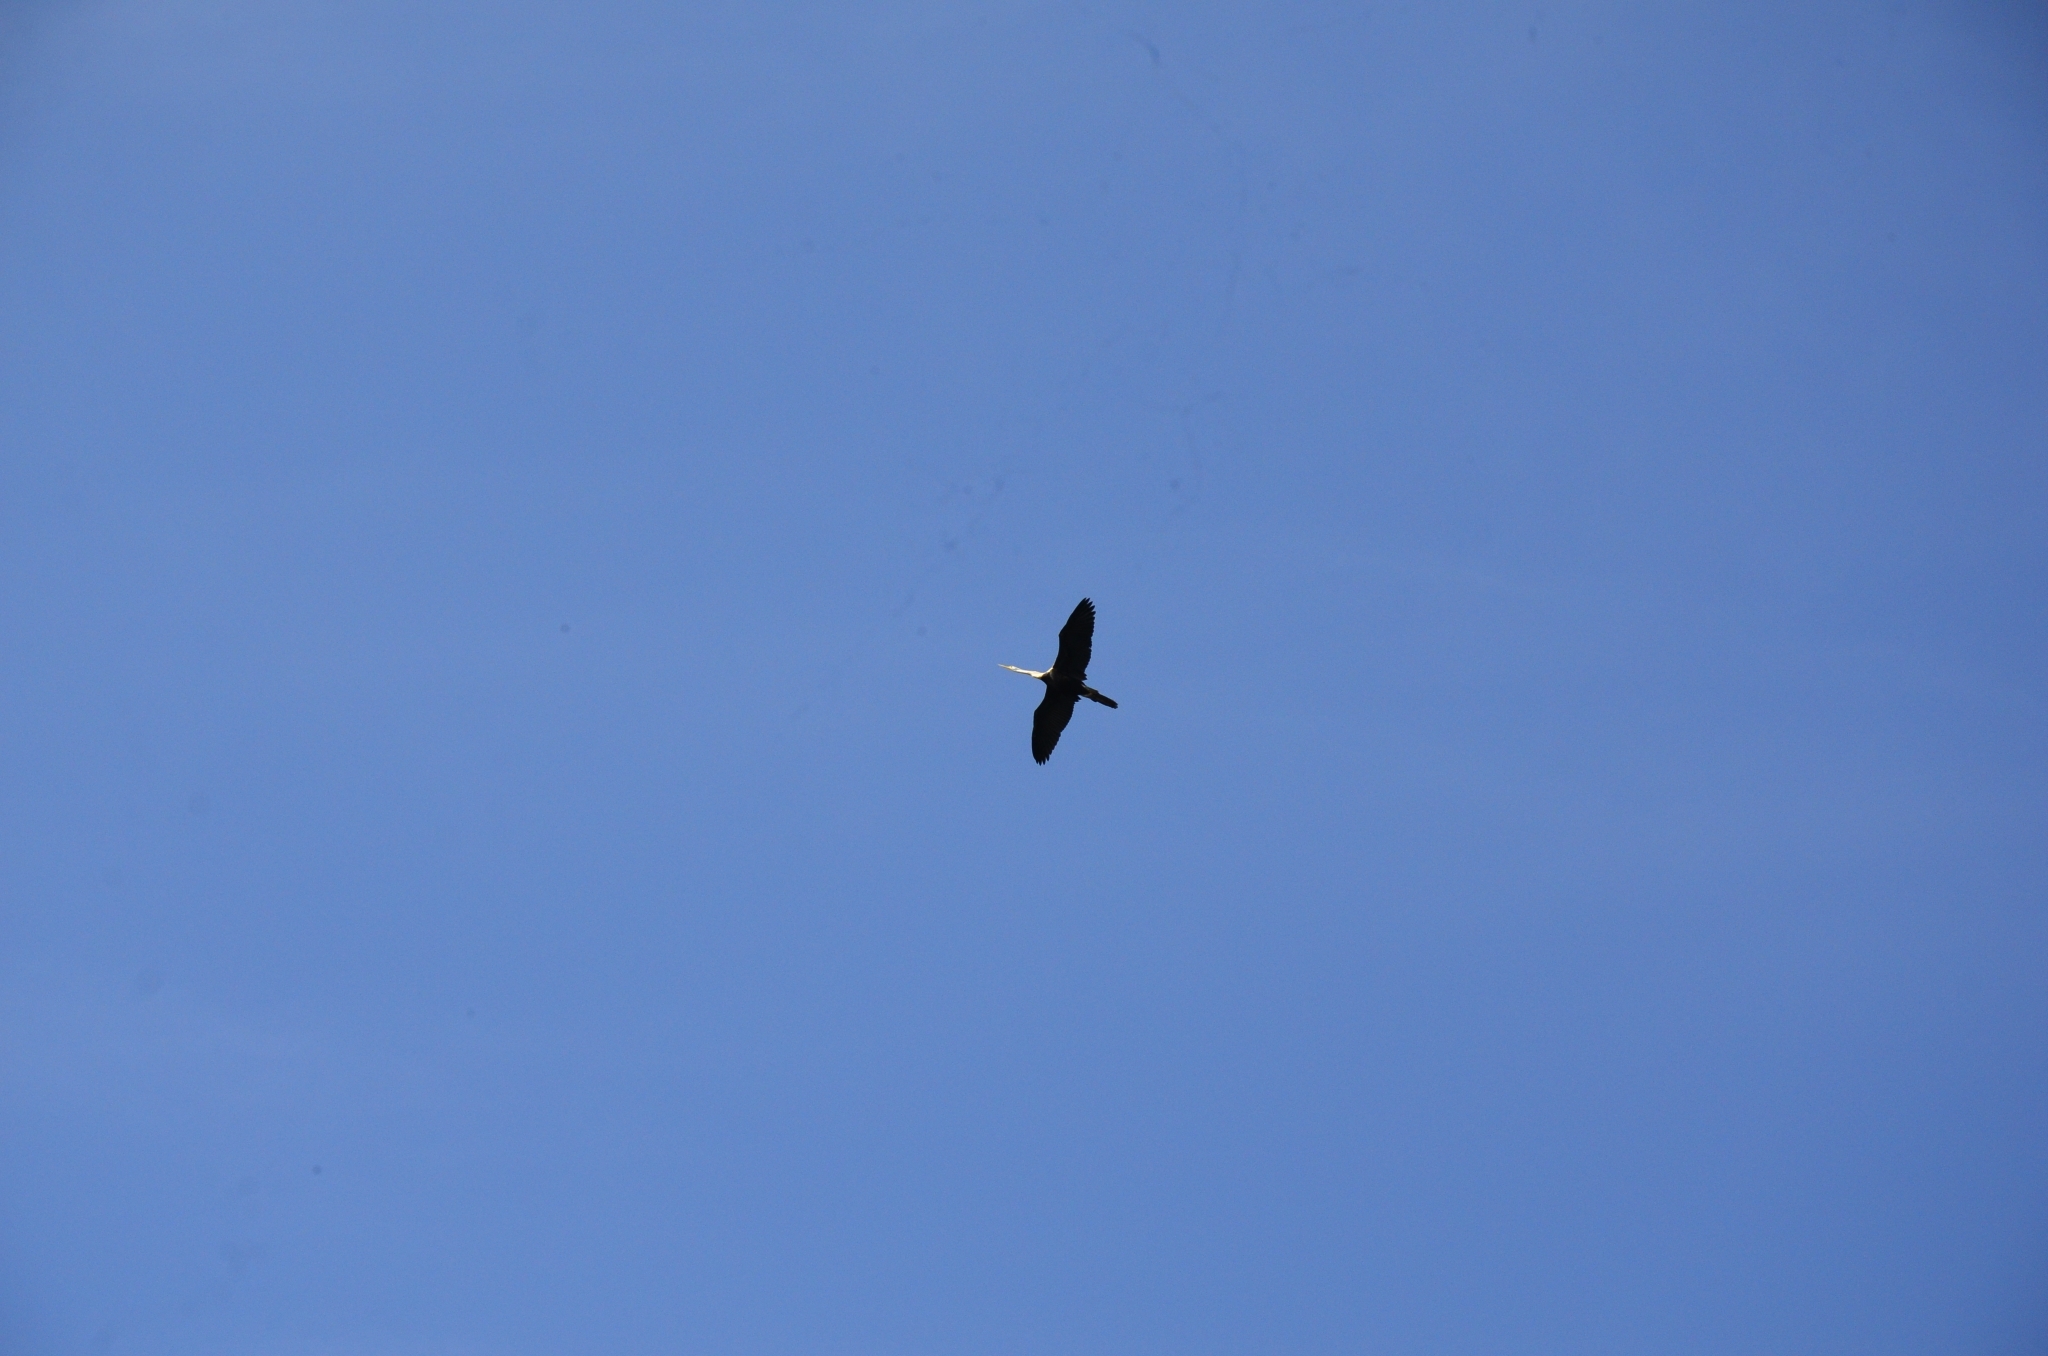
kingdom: Animalia
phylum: Chordata
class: Aves
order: Suliformes
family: Anhingidae
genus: Anhinga
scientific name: Anhinga melanogaster
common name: Oriental darter
